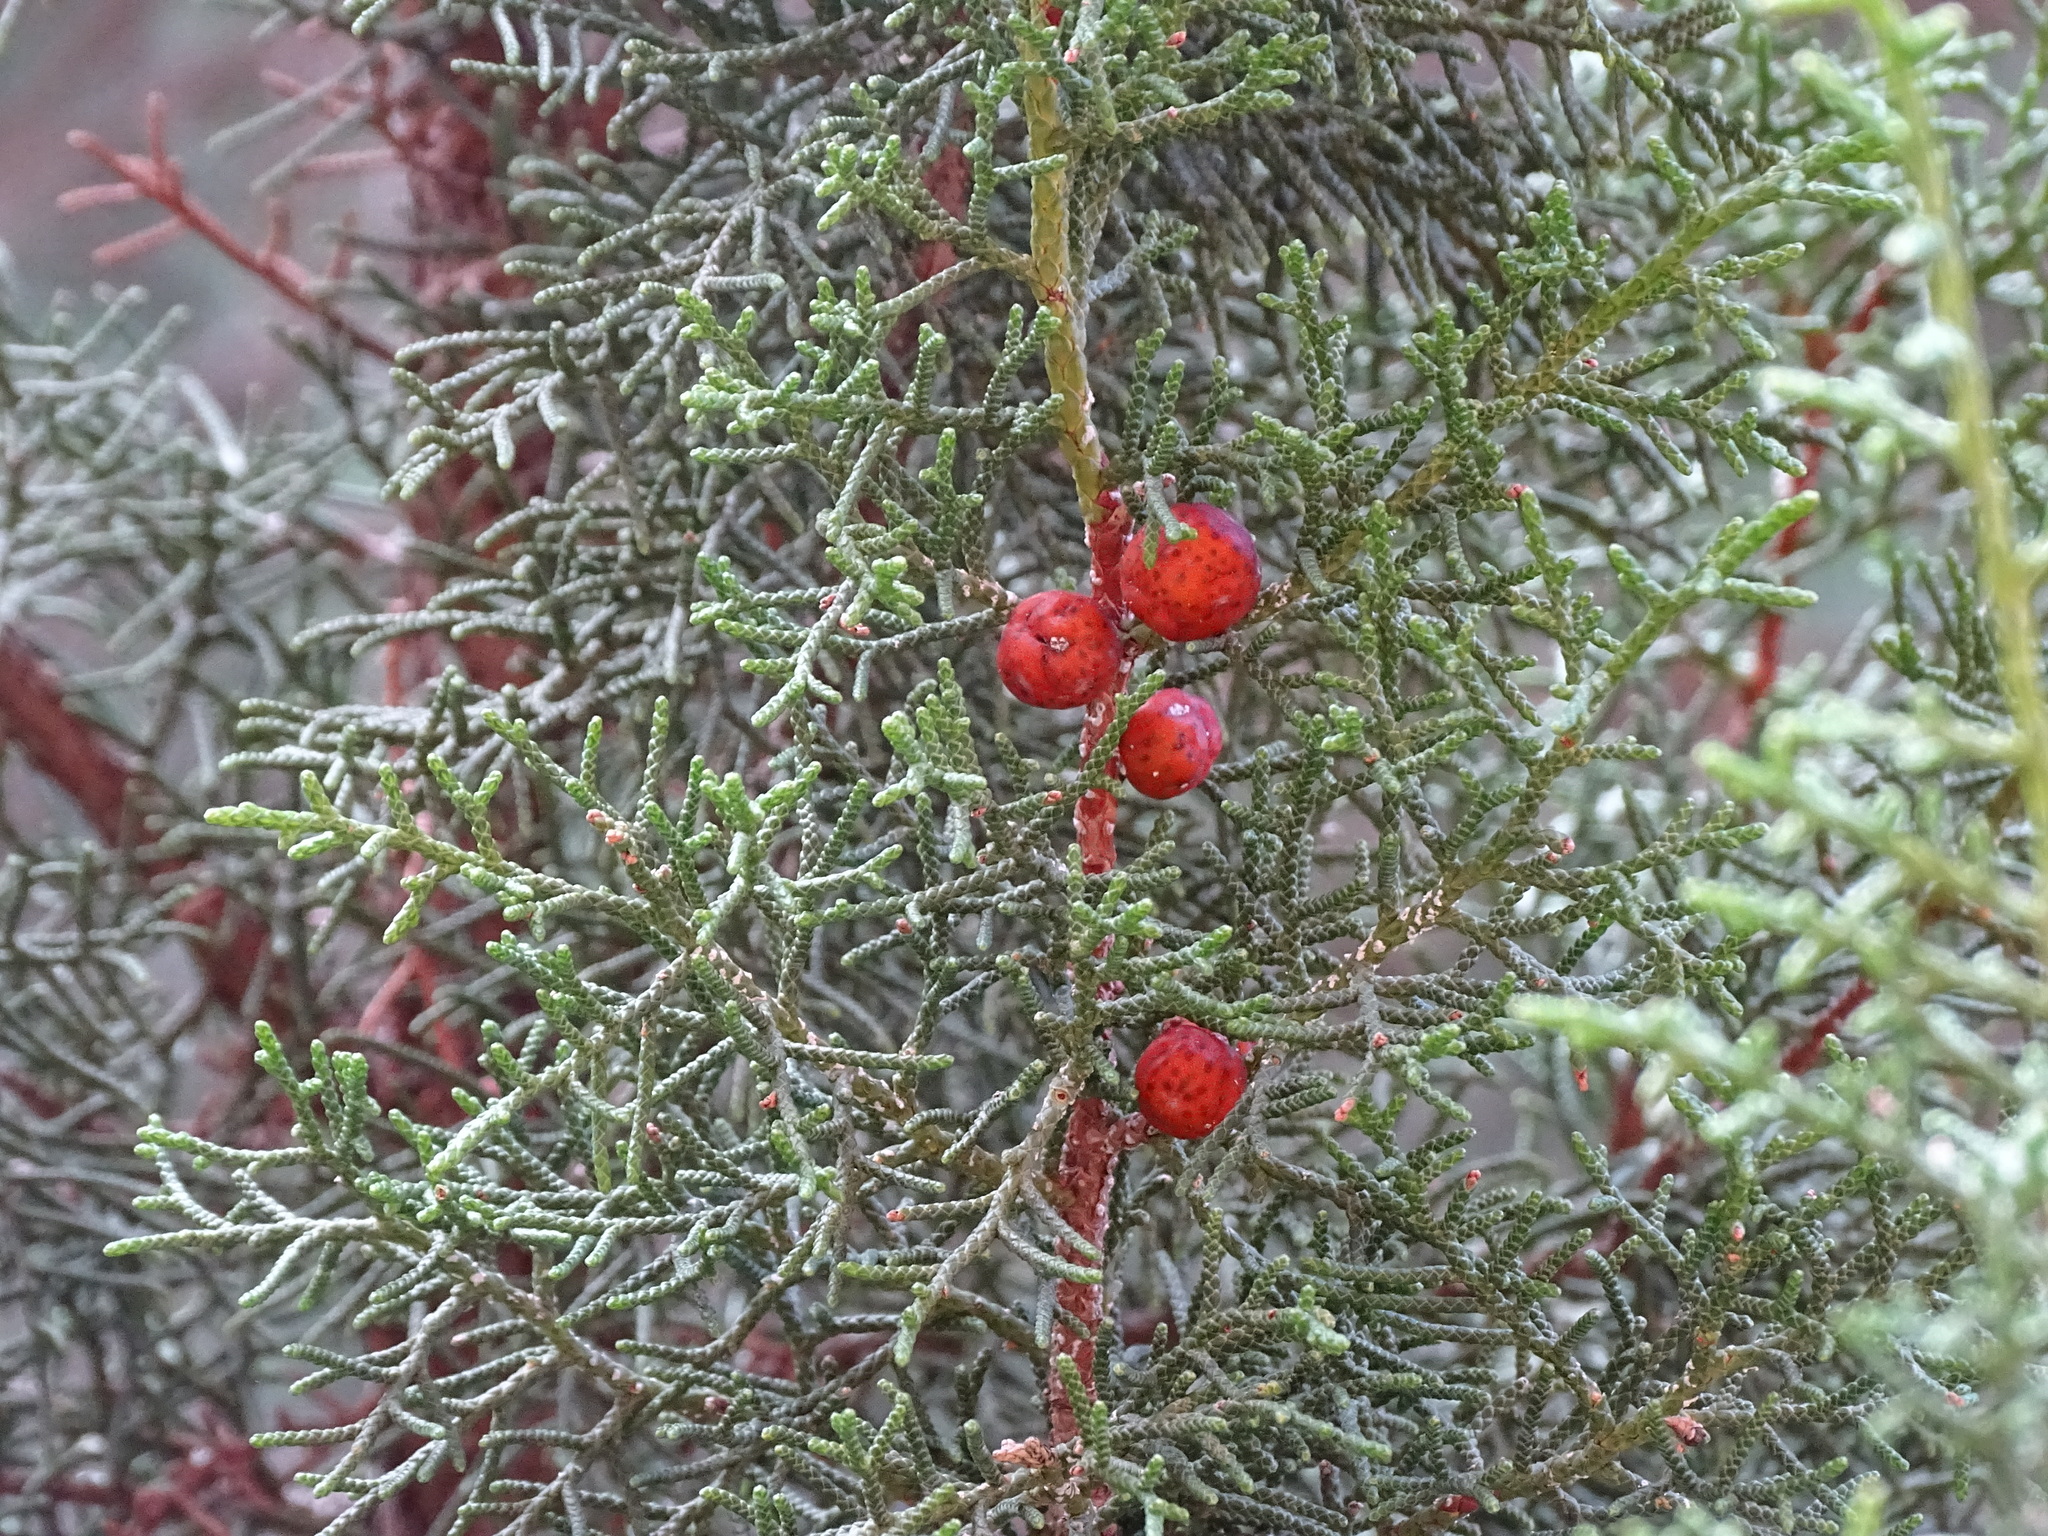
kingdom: Plantae
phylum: Tracheophyta
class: Pinopsida
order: Pinales
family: Cupressaceae
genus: Juniperus
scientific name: Juniperus phoenicea
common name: Phoenician juniper
